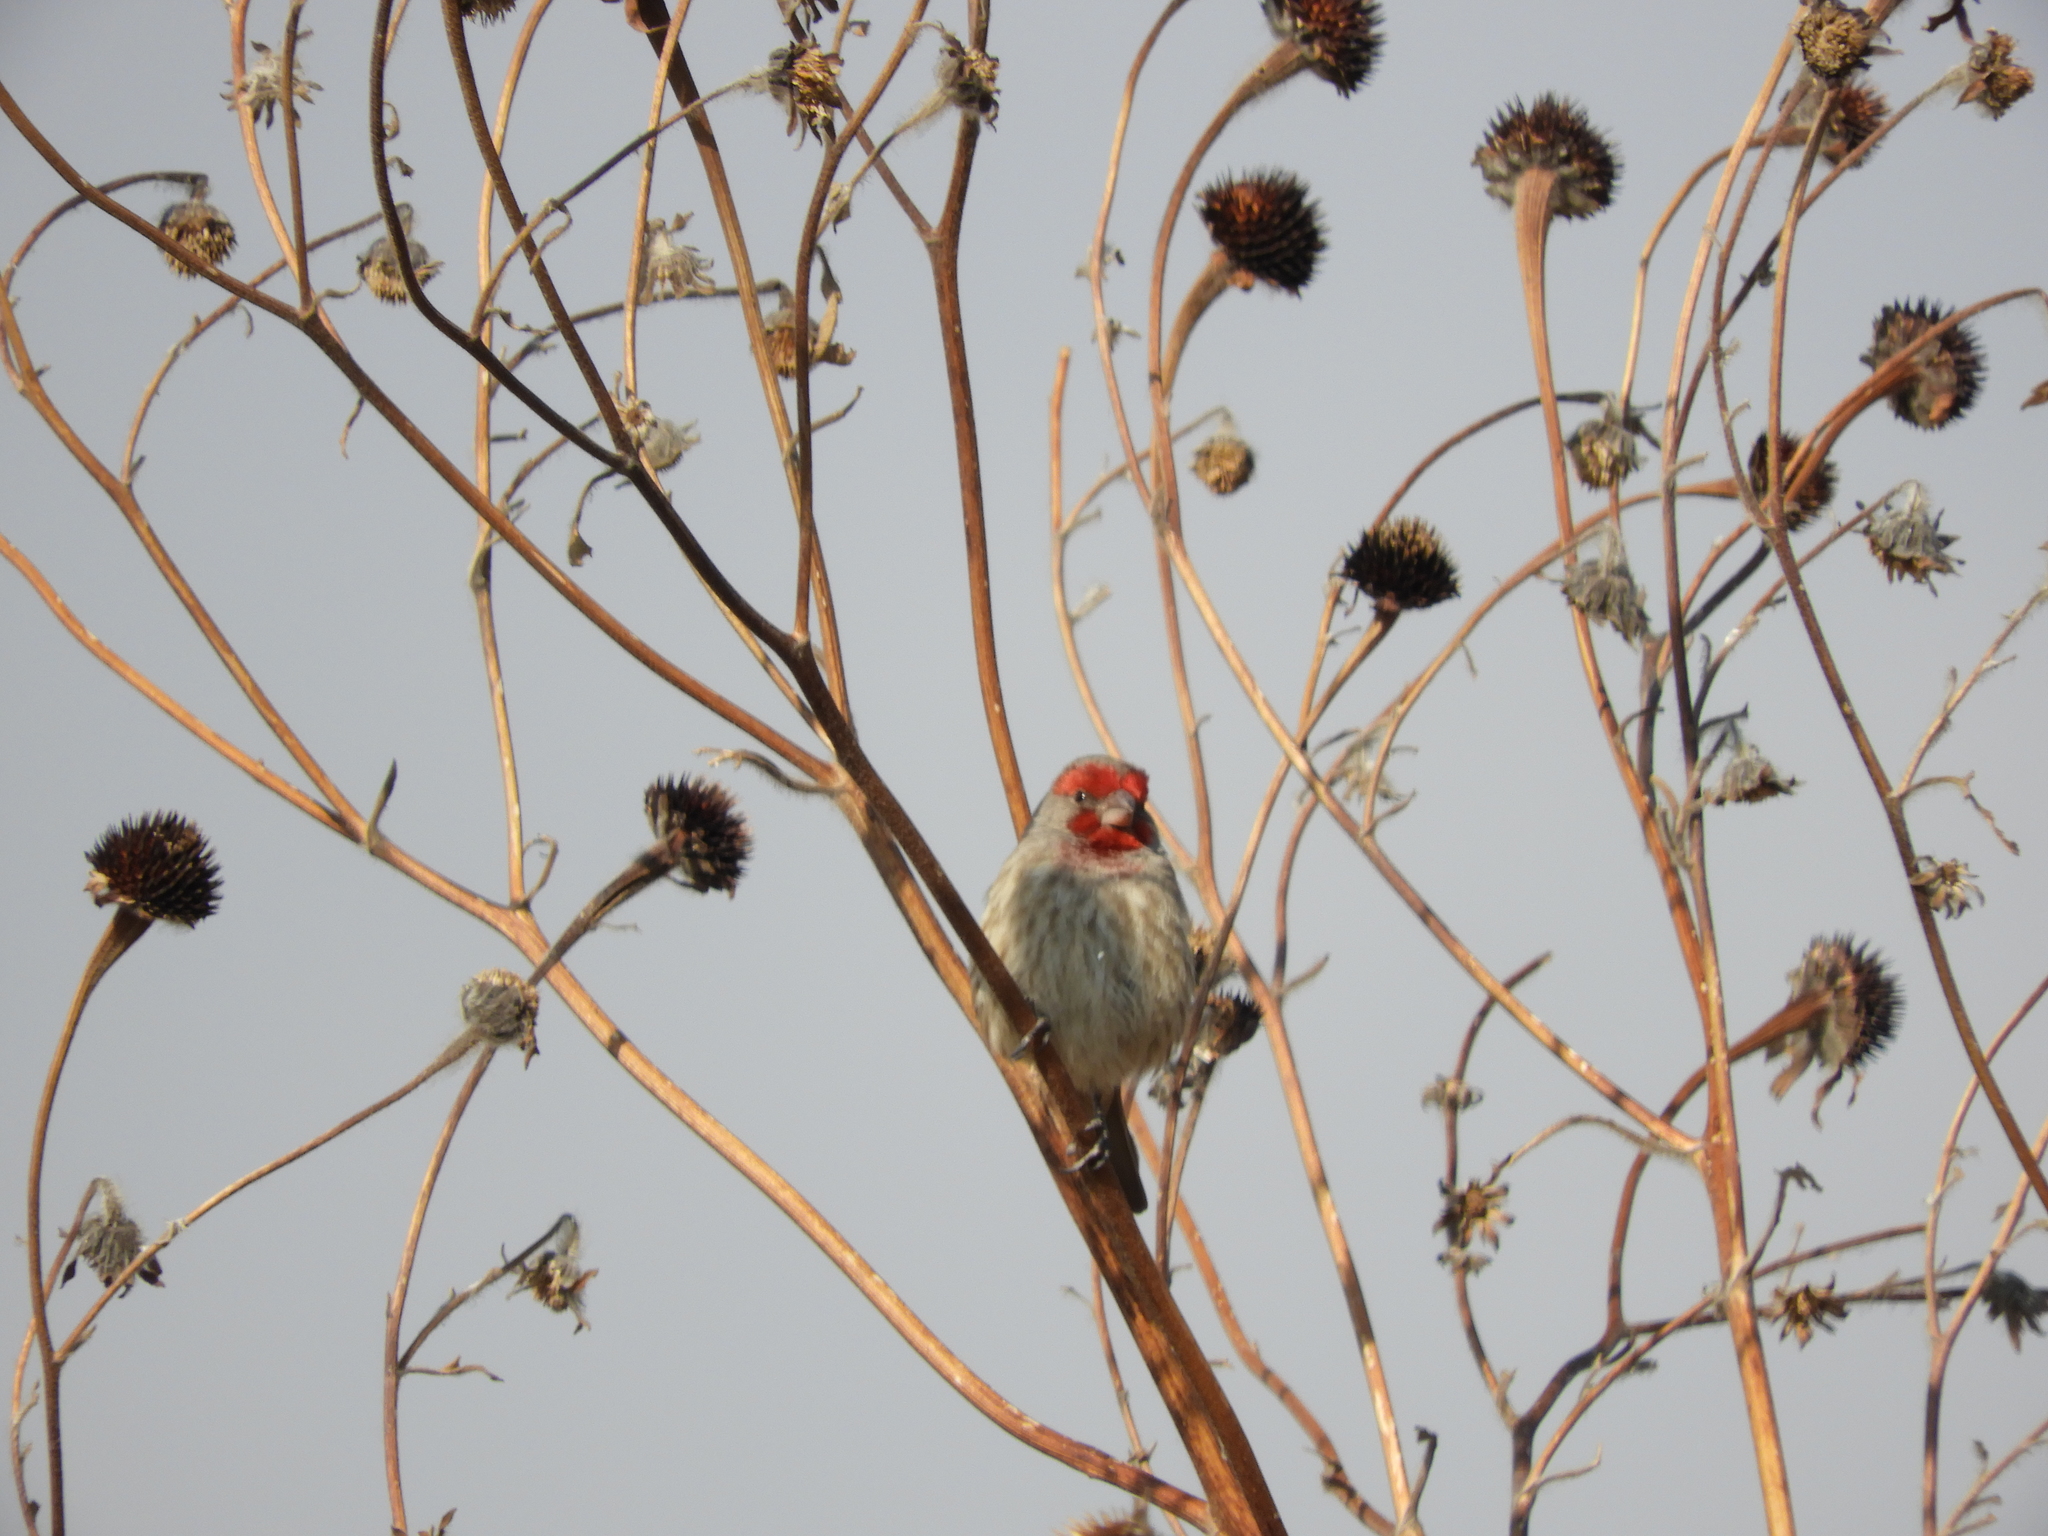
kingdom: Animalia
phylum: Chordata
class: Aves
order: Passeriformes
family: Fringillidae
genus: Haemorhous
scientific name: Haemorhous mexicanus
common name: House finch
